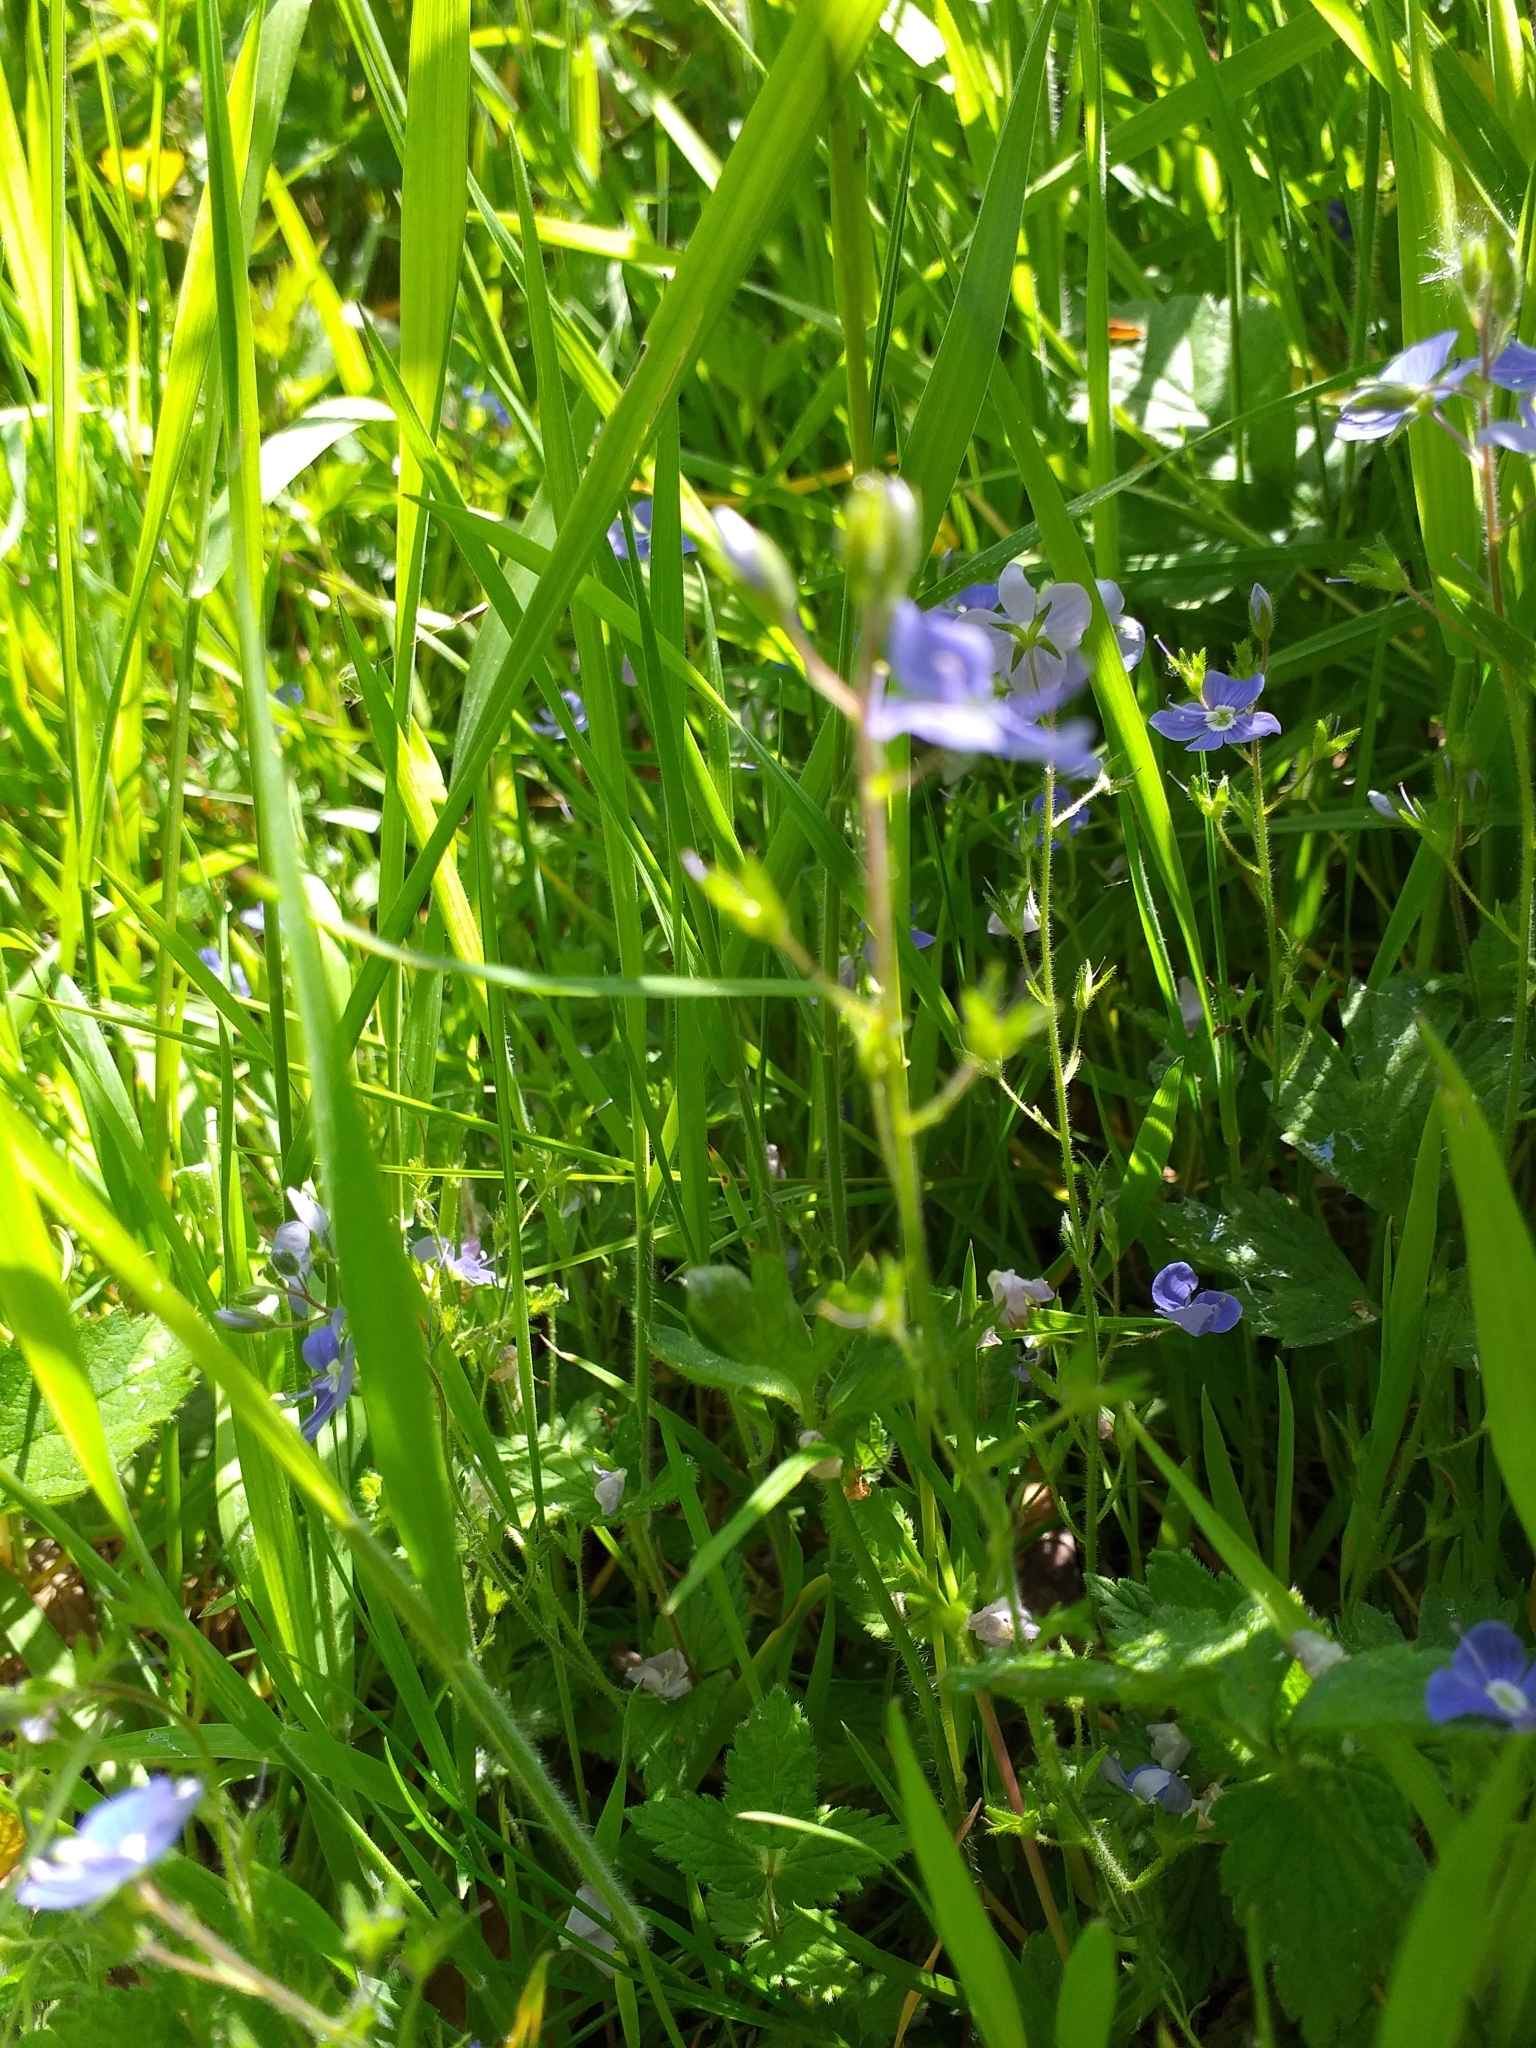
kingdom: Plantae
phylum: Tracheophyta
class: Magnoliopsida
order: Lamiales
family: Plantaginaceae
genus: Veronica
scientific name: Veronica chamaedrys
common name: Germander speedwell
